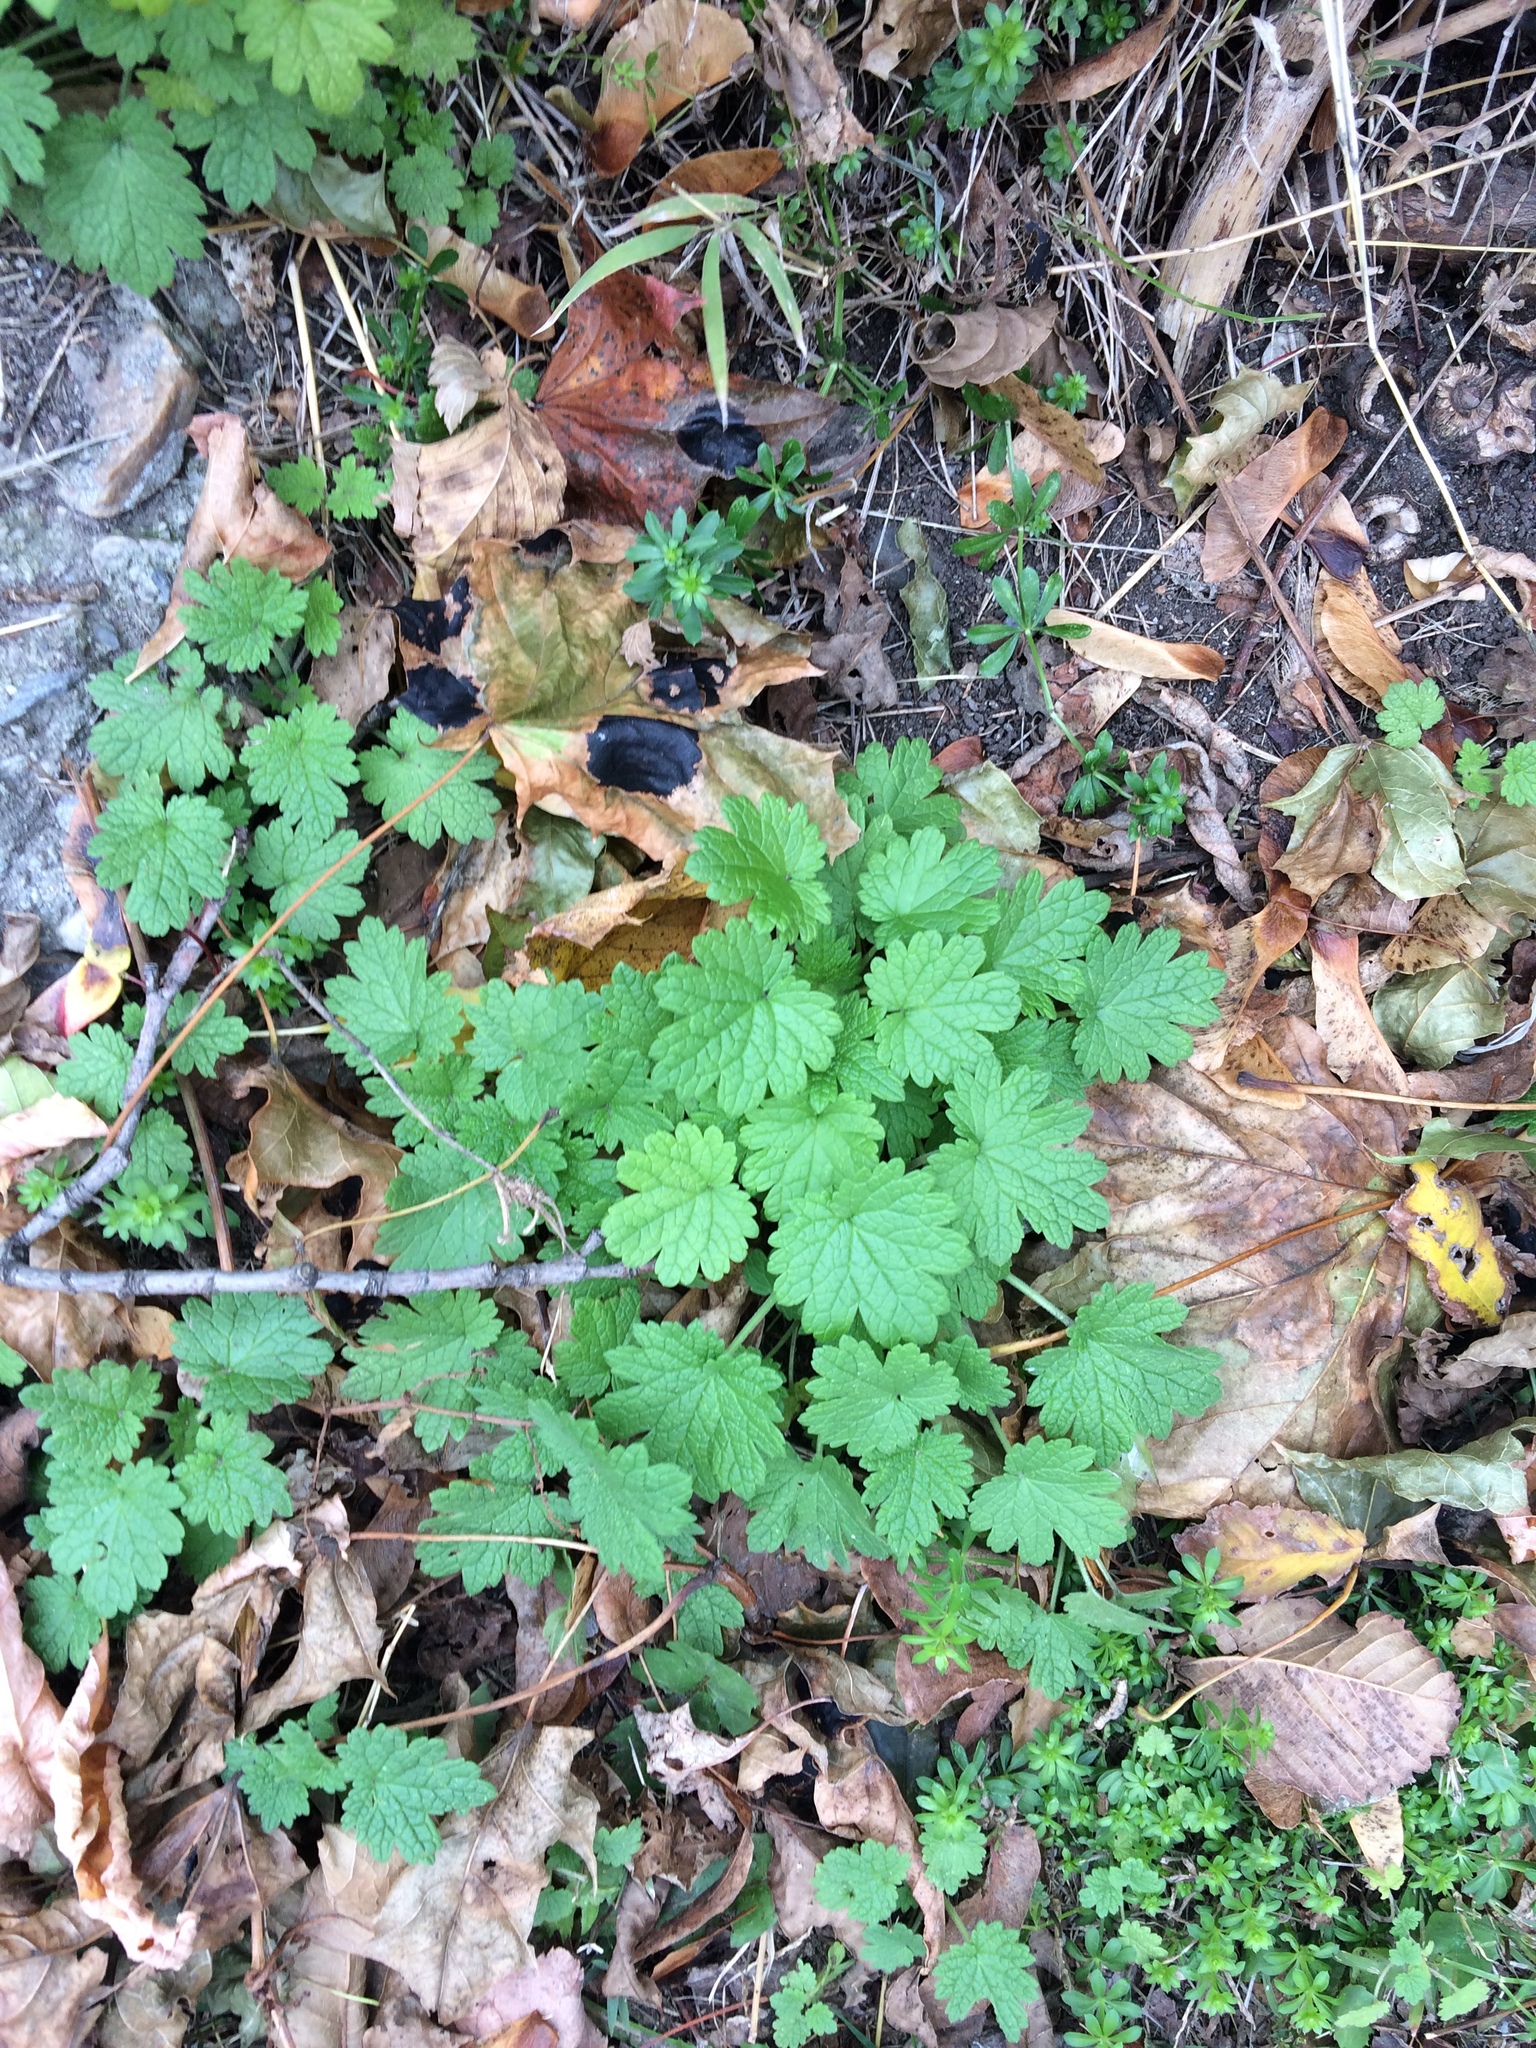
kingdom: Plantae
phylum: Tracheophyta
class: Magnoliopsida
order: Lamiales
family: Lamiaceae
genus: Leonurus
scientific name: Leonurus cardiaca
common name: Motherwort
